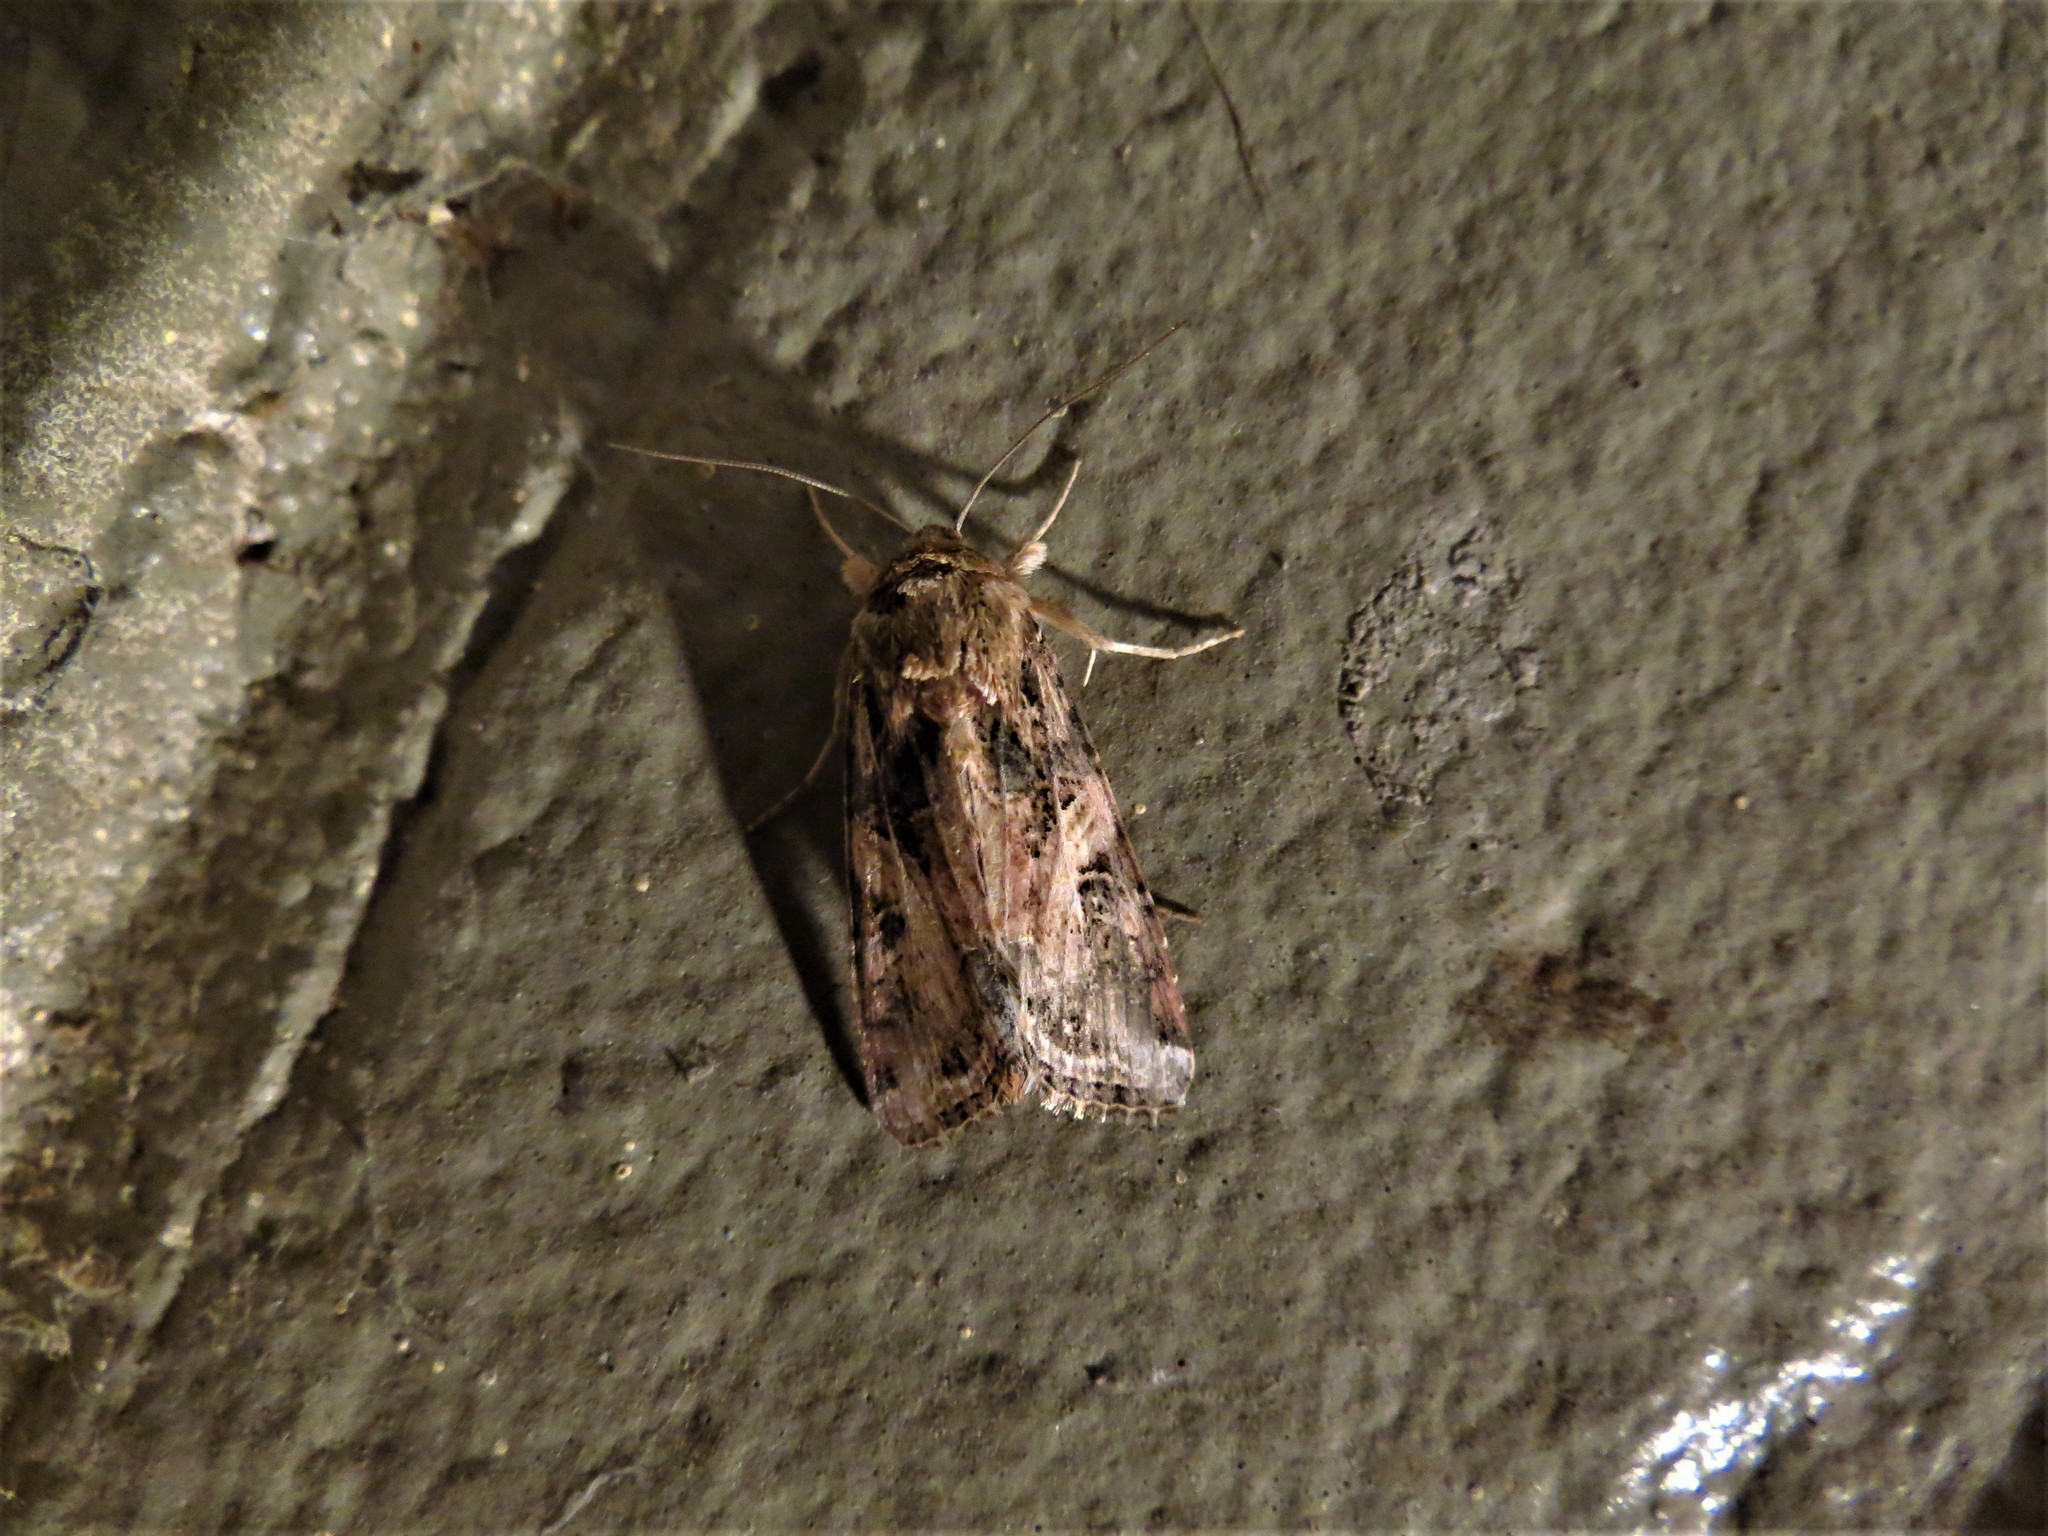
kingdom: Animalia
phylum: Arthropoda
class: Insecta
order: Lepidoptera
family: Noctuidae
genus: Spodoptera
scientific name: Spodoptera ornithogalli
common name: Yellow-striped armyworm
